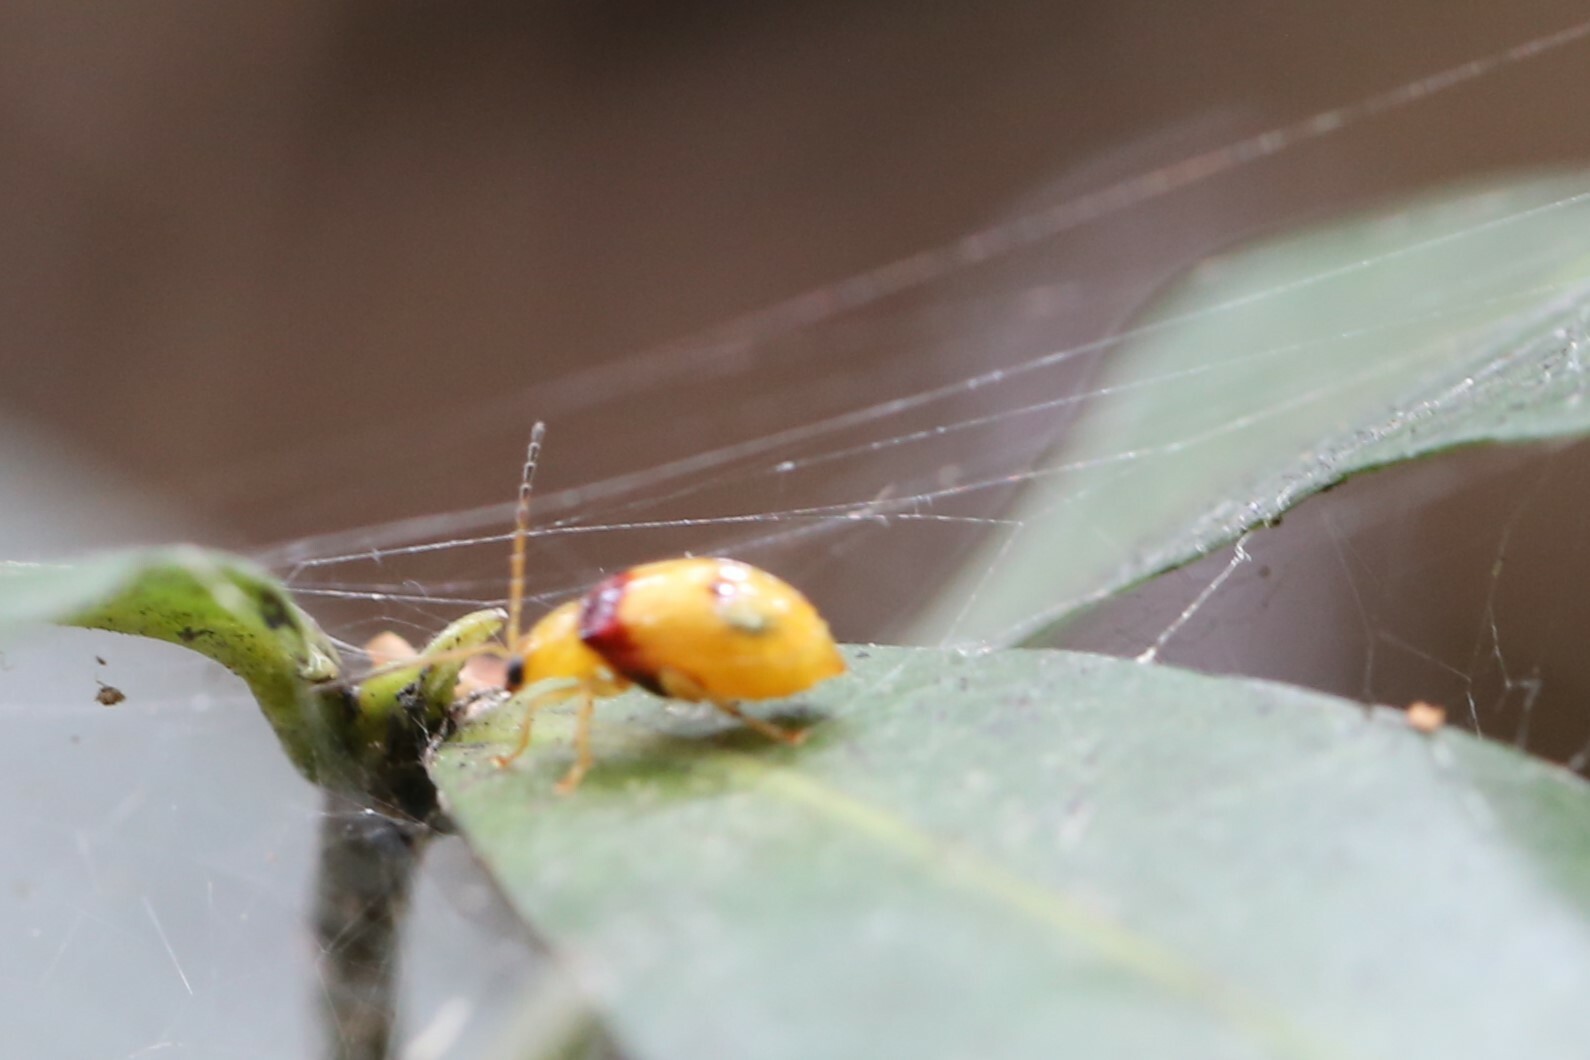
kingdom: Animalia
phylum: Arthropoda
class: Insecta
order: Coleoptera
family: Chrysomelidae
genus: Monolepta
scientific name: Monolepta
